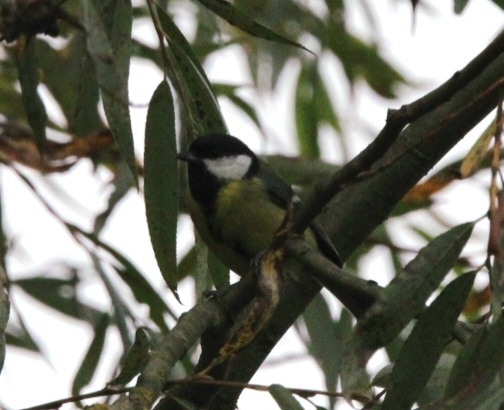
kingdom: Animalia
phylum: Chordata
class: Aves
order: Passeriformes
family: Paridae
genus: Parus
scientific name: Parus major
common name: Great tit
